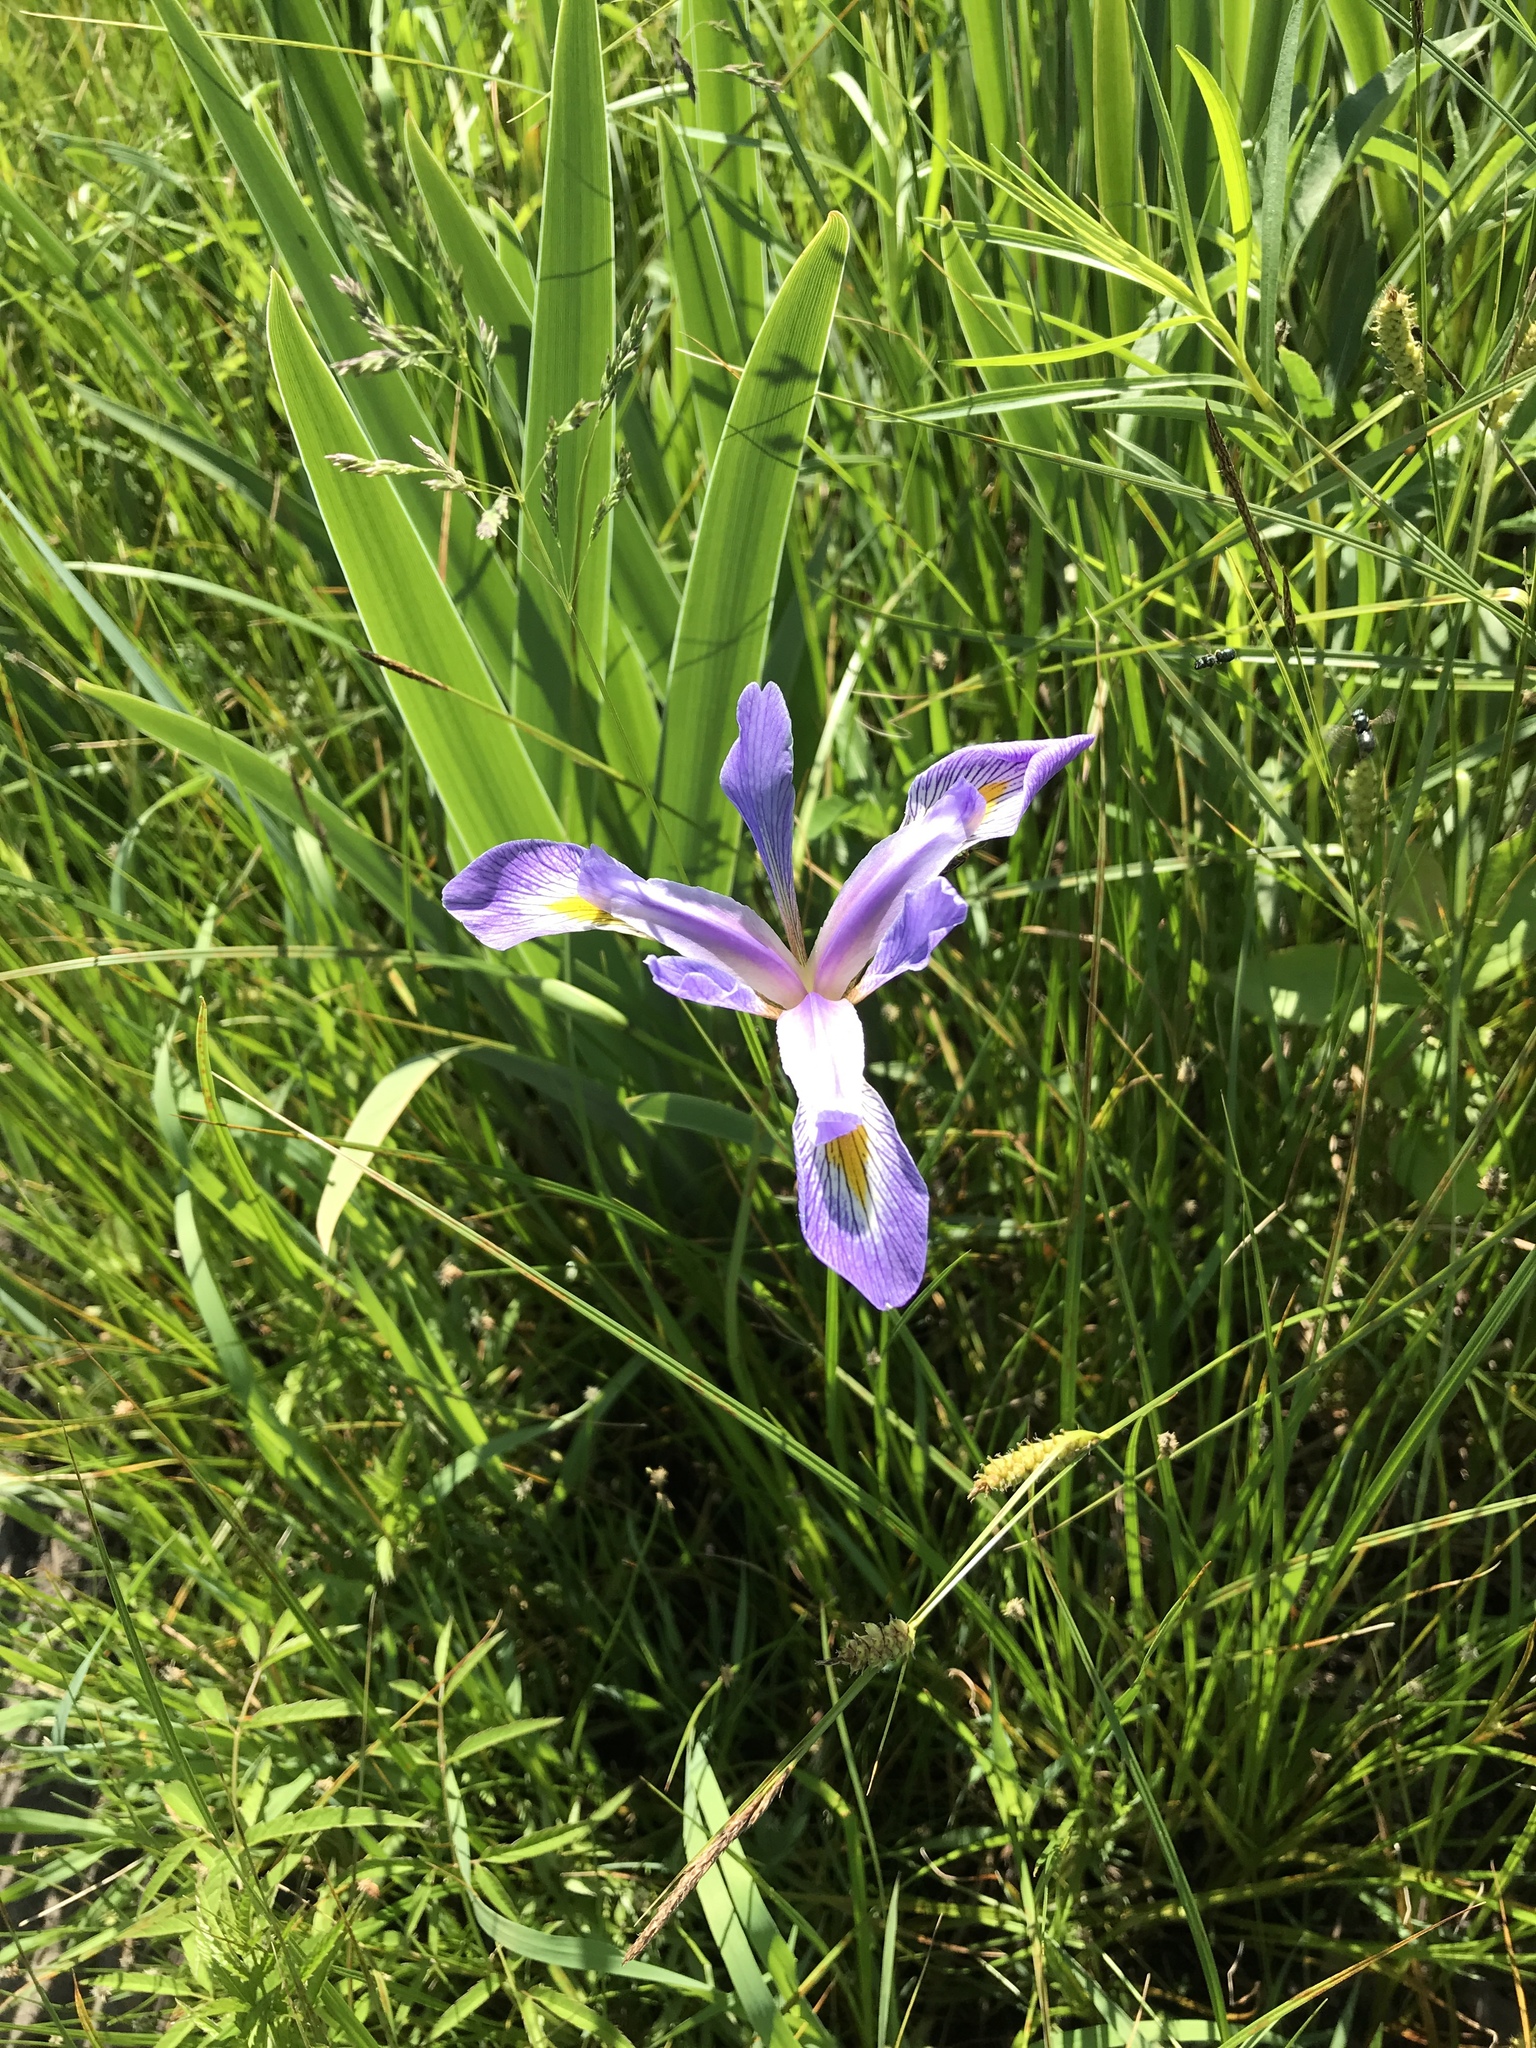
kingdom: Plantae
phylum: Tracheophyta
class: Liliopsida
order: Asparagales
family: Iridaceae
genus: Iris
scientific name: Iris virginica
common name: Southern blue flag
